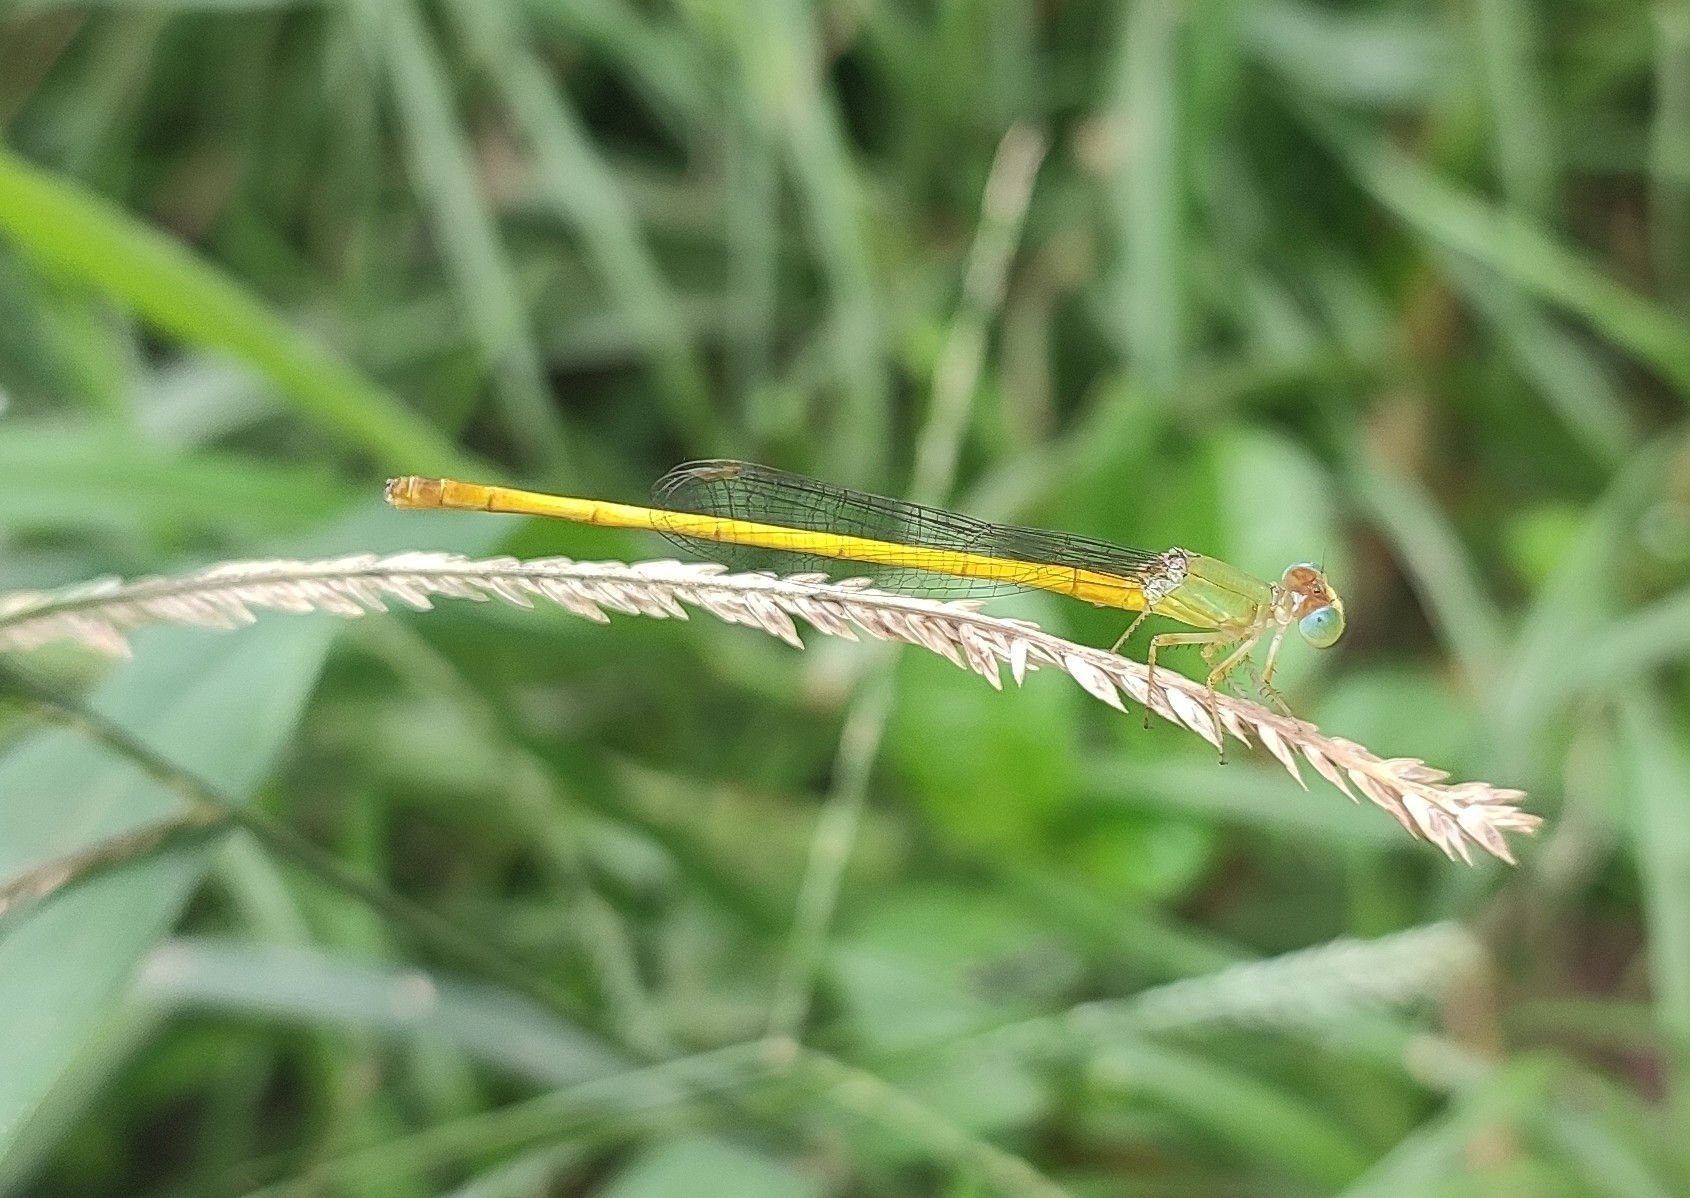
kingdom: Animalia
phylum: Arthropoda
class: Insecta
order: Odonata
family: Coenagrionidae
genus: Ceriagrion
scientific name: Ceriagrion coromandelianum
